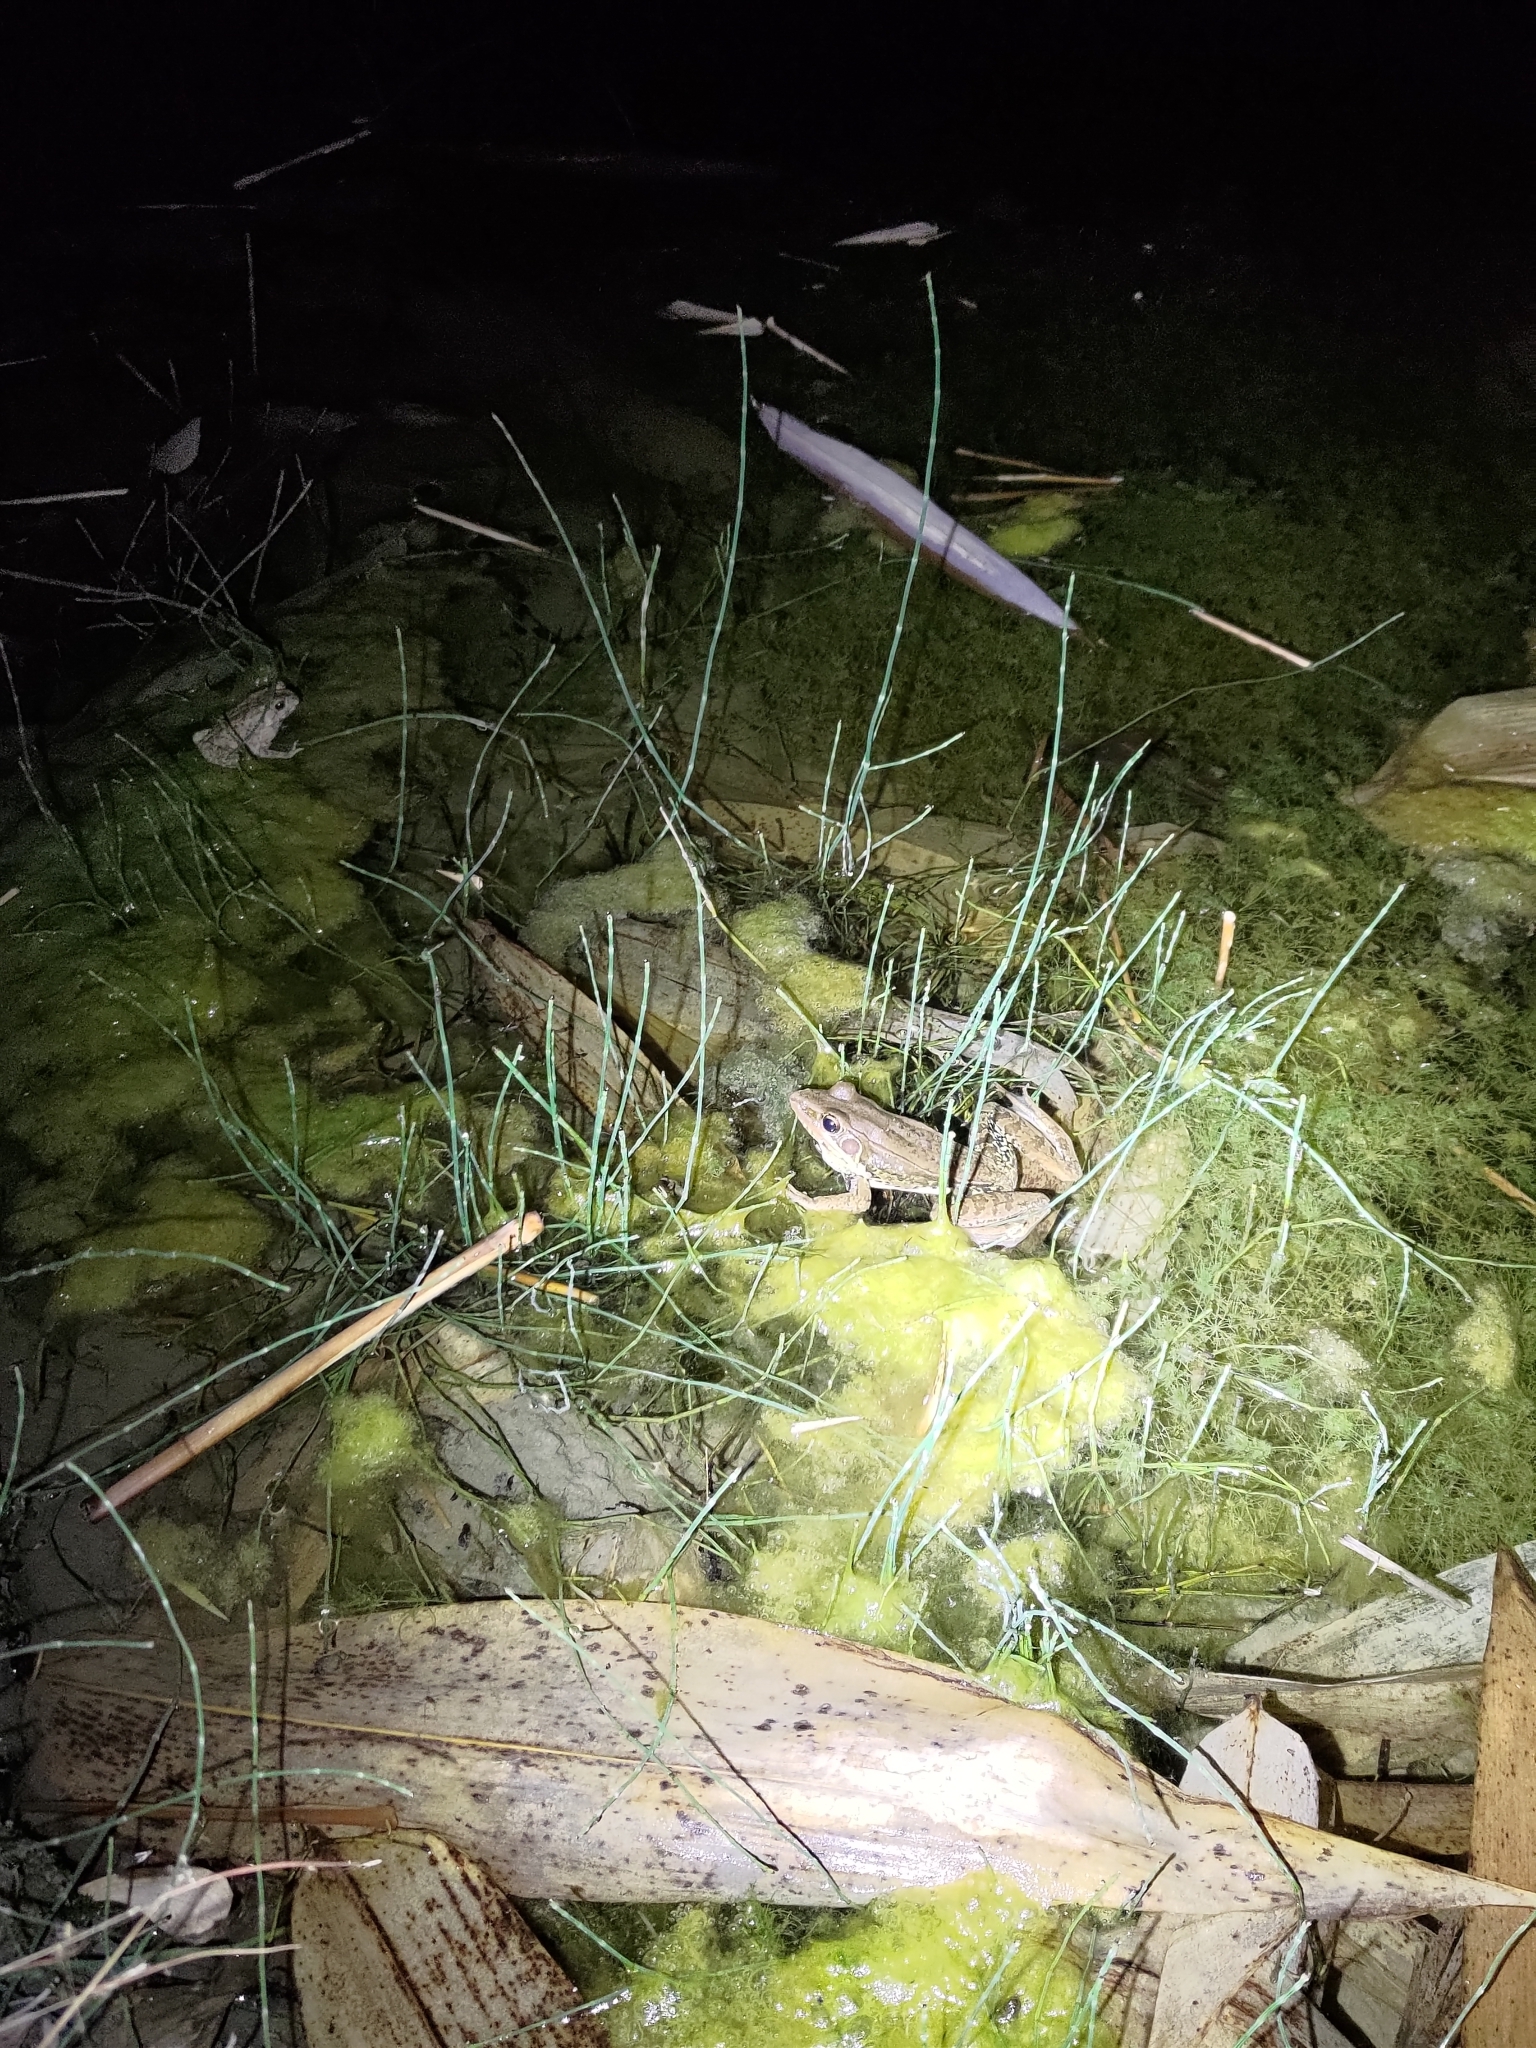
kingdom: Animalia
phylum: Chordata
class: Amphibia
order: Anura
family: Ranidae
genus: Sylvirana
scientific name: Sylvirana guentheri
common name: Guenther's amoy frog
